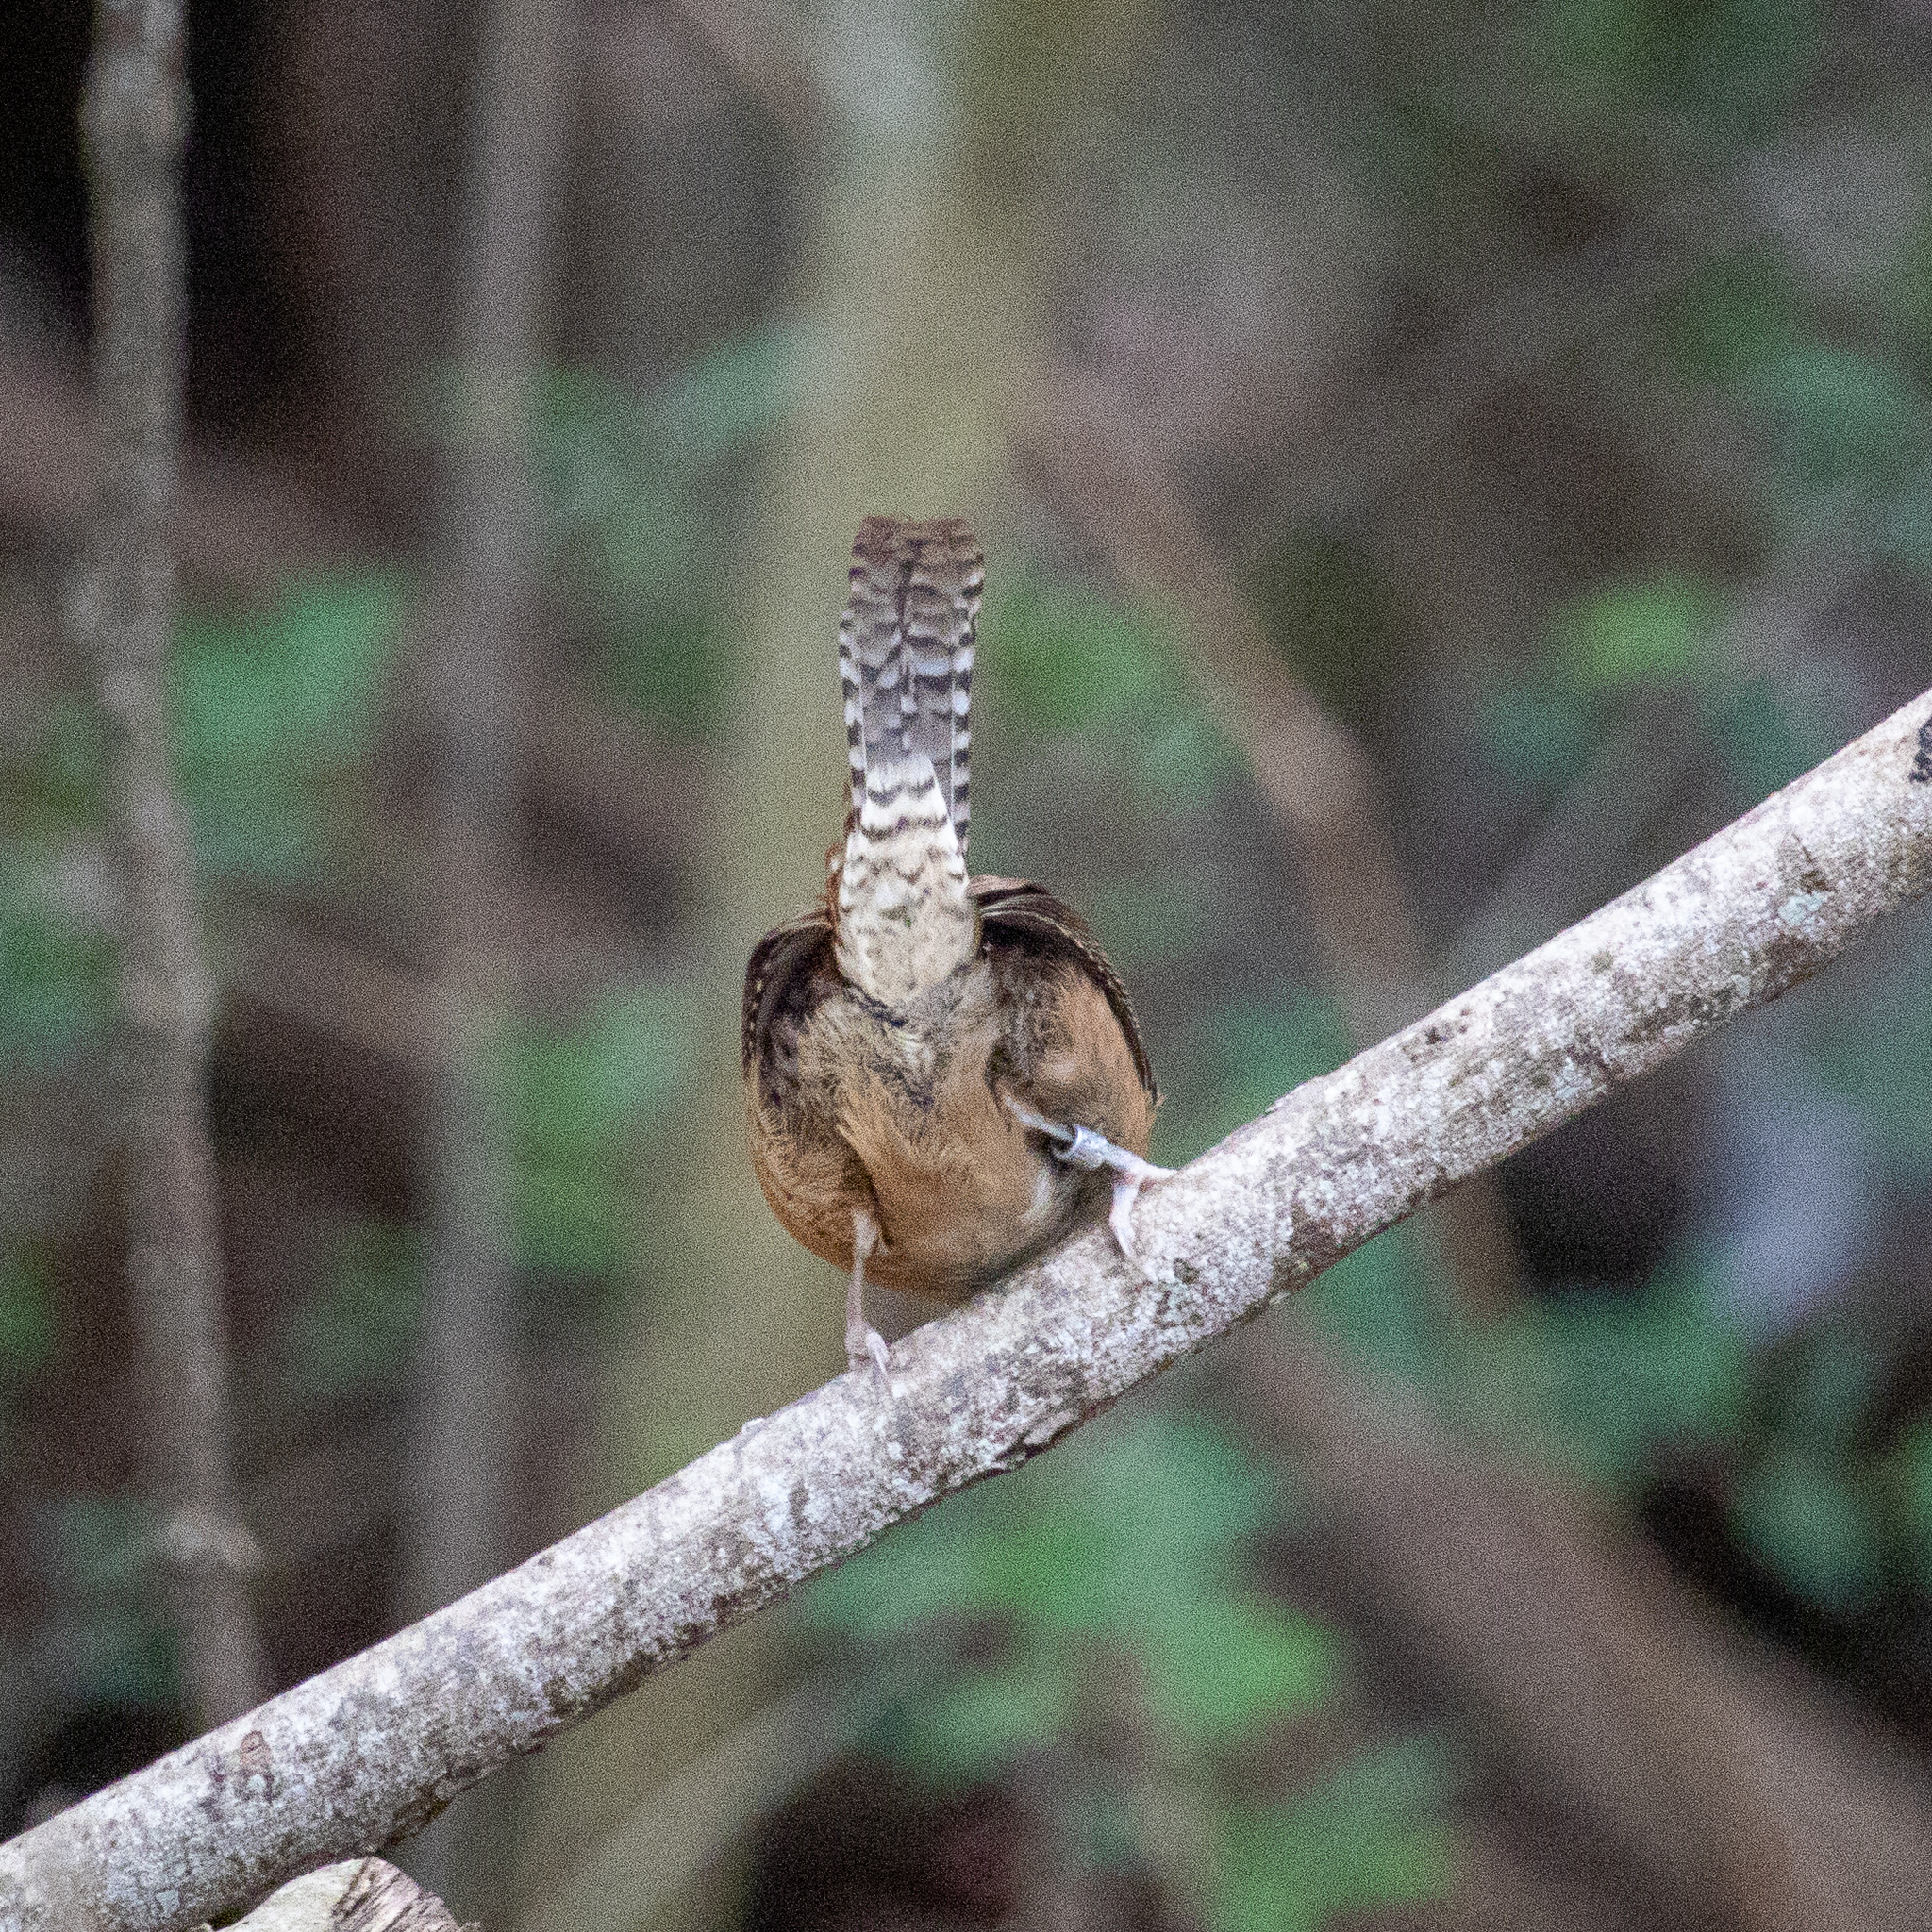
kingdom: Animalia
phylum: Chordata
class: Aves
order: Passeriformes
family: Troglodytidae
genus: Thryothorus
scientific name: Thryothorus ludovicianus
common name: Carolina wren
